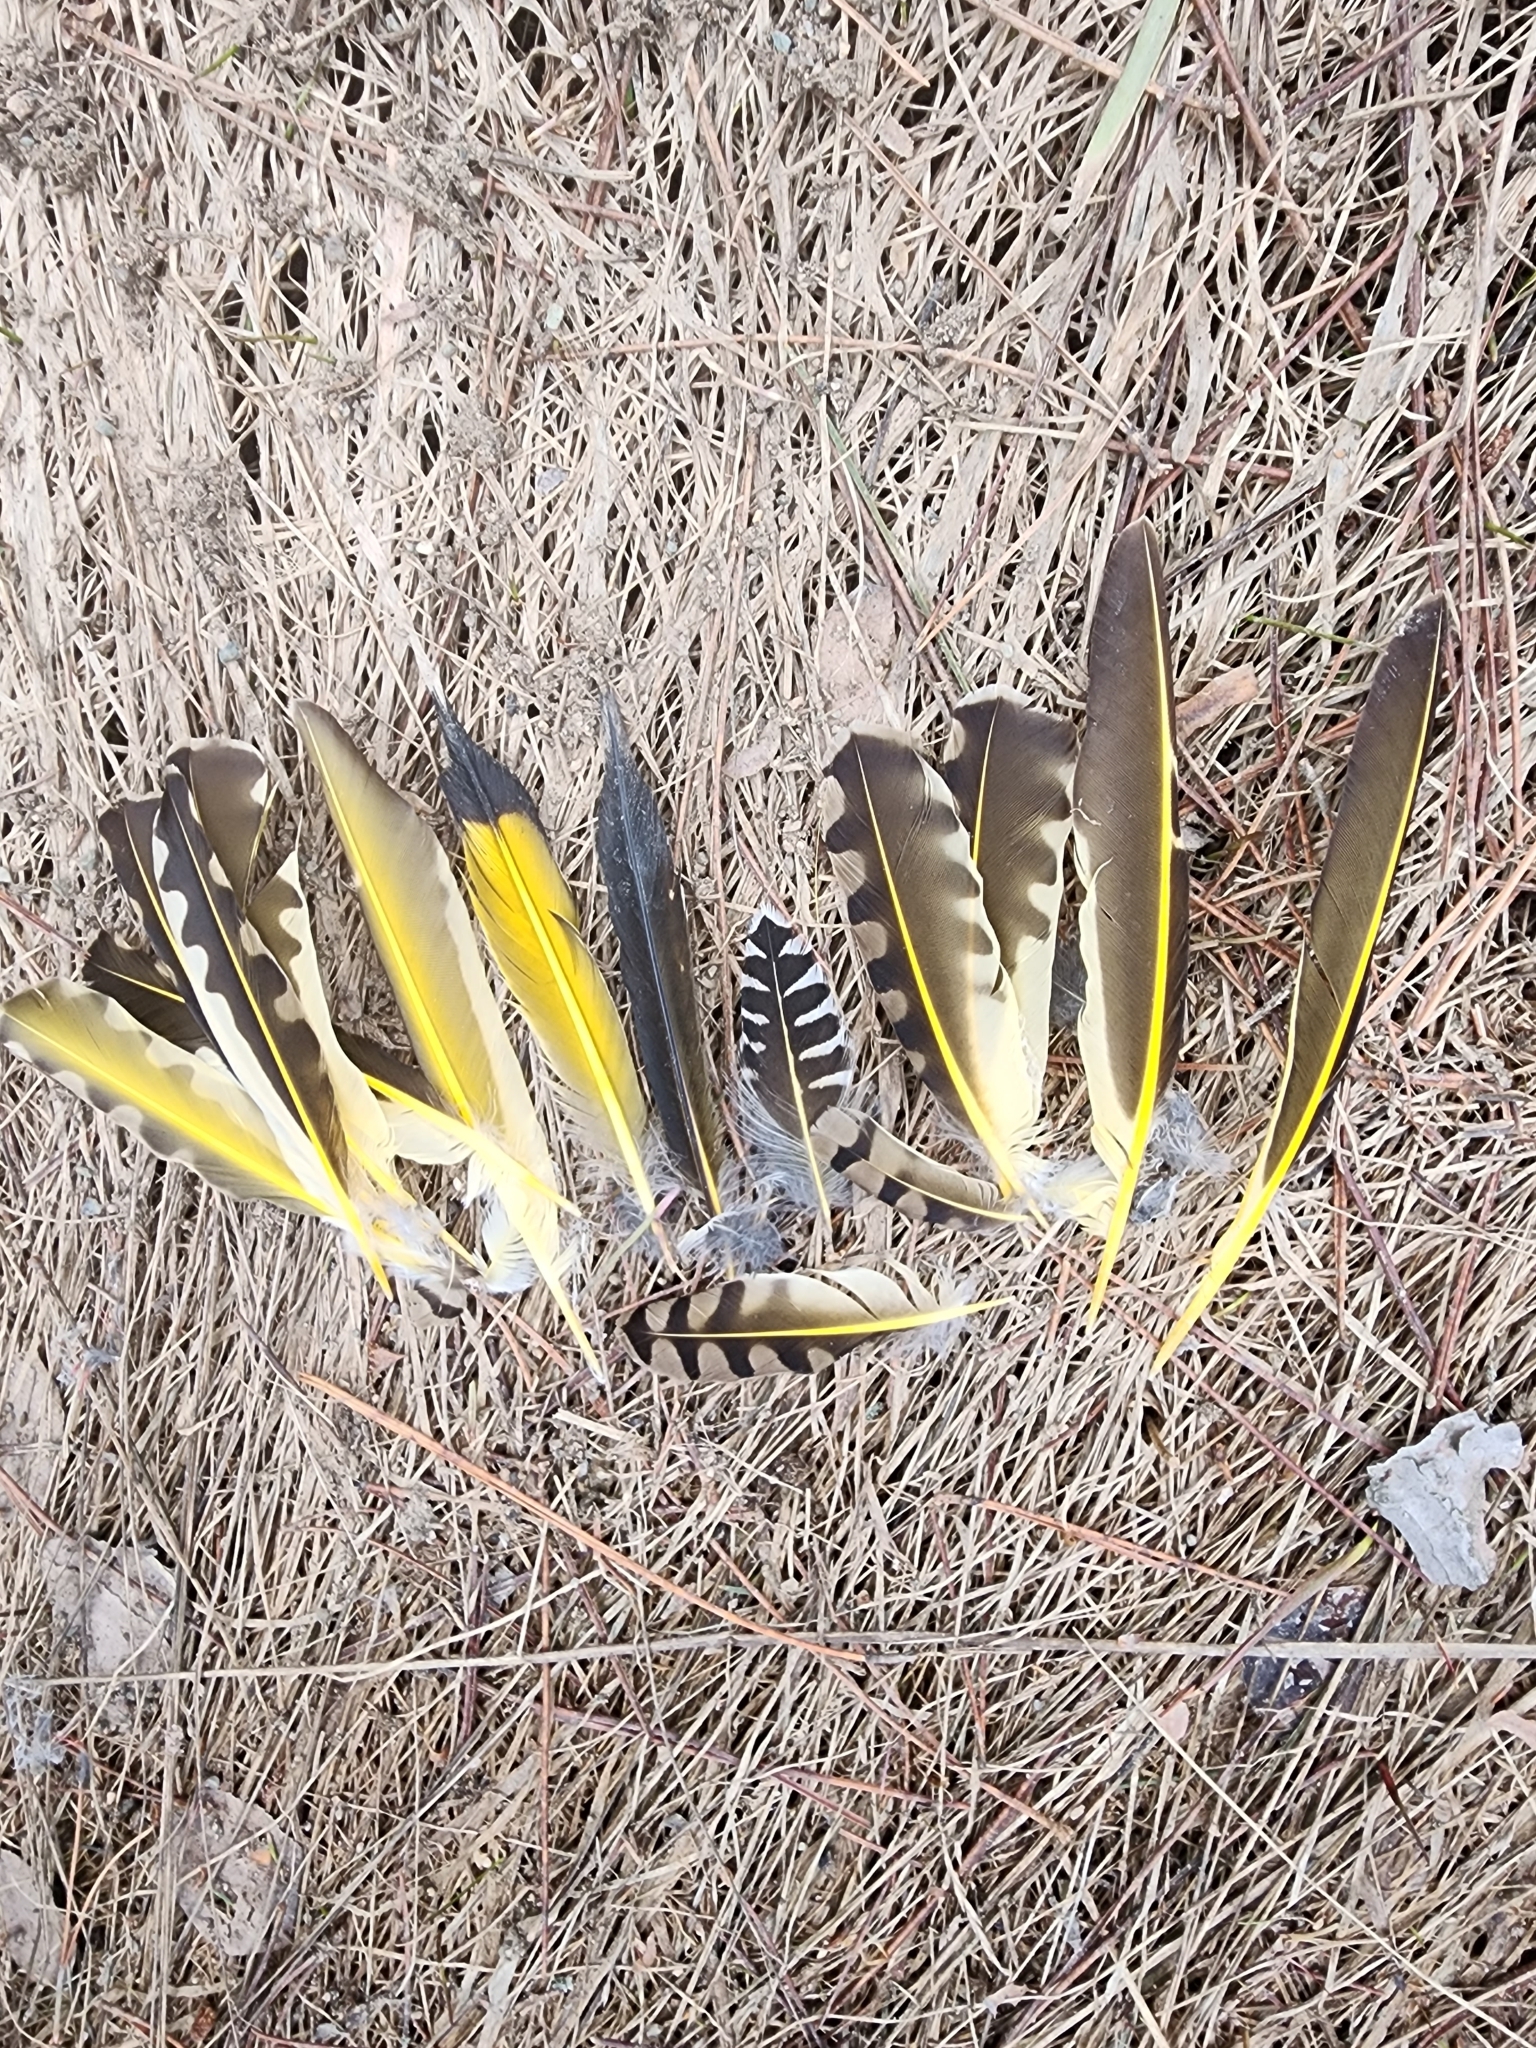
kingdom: Animalia
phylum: Chordata
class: Aves
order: Piciformes
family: Picidae
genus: Colaptes
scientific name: Colaptes auratus
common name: Northern flicker
